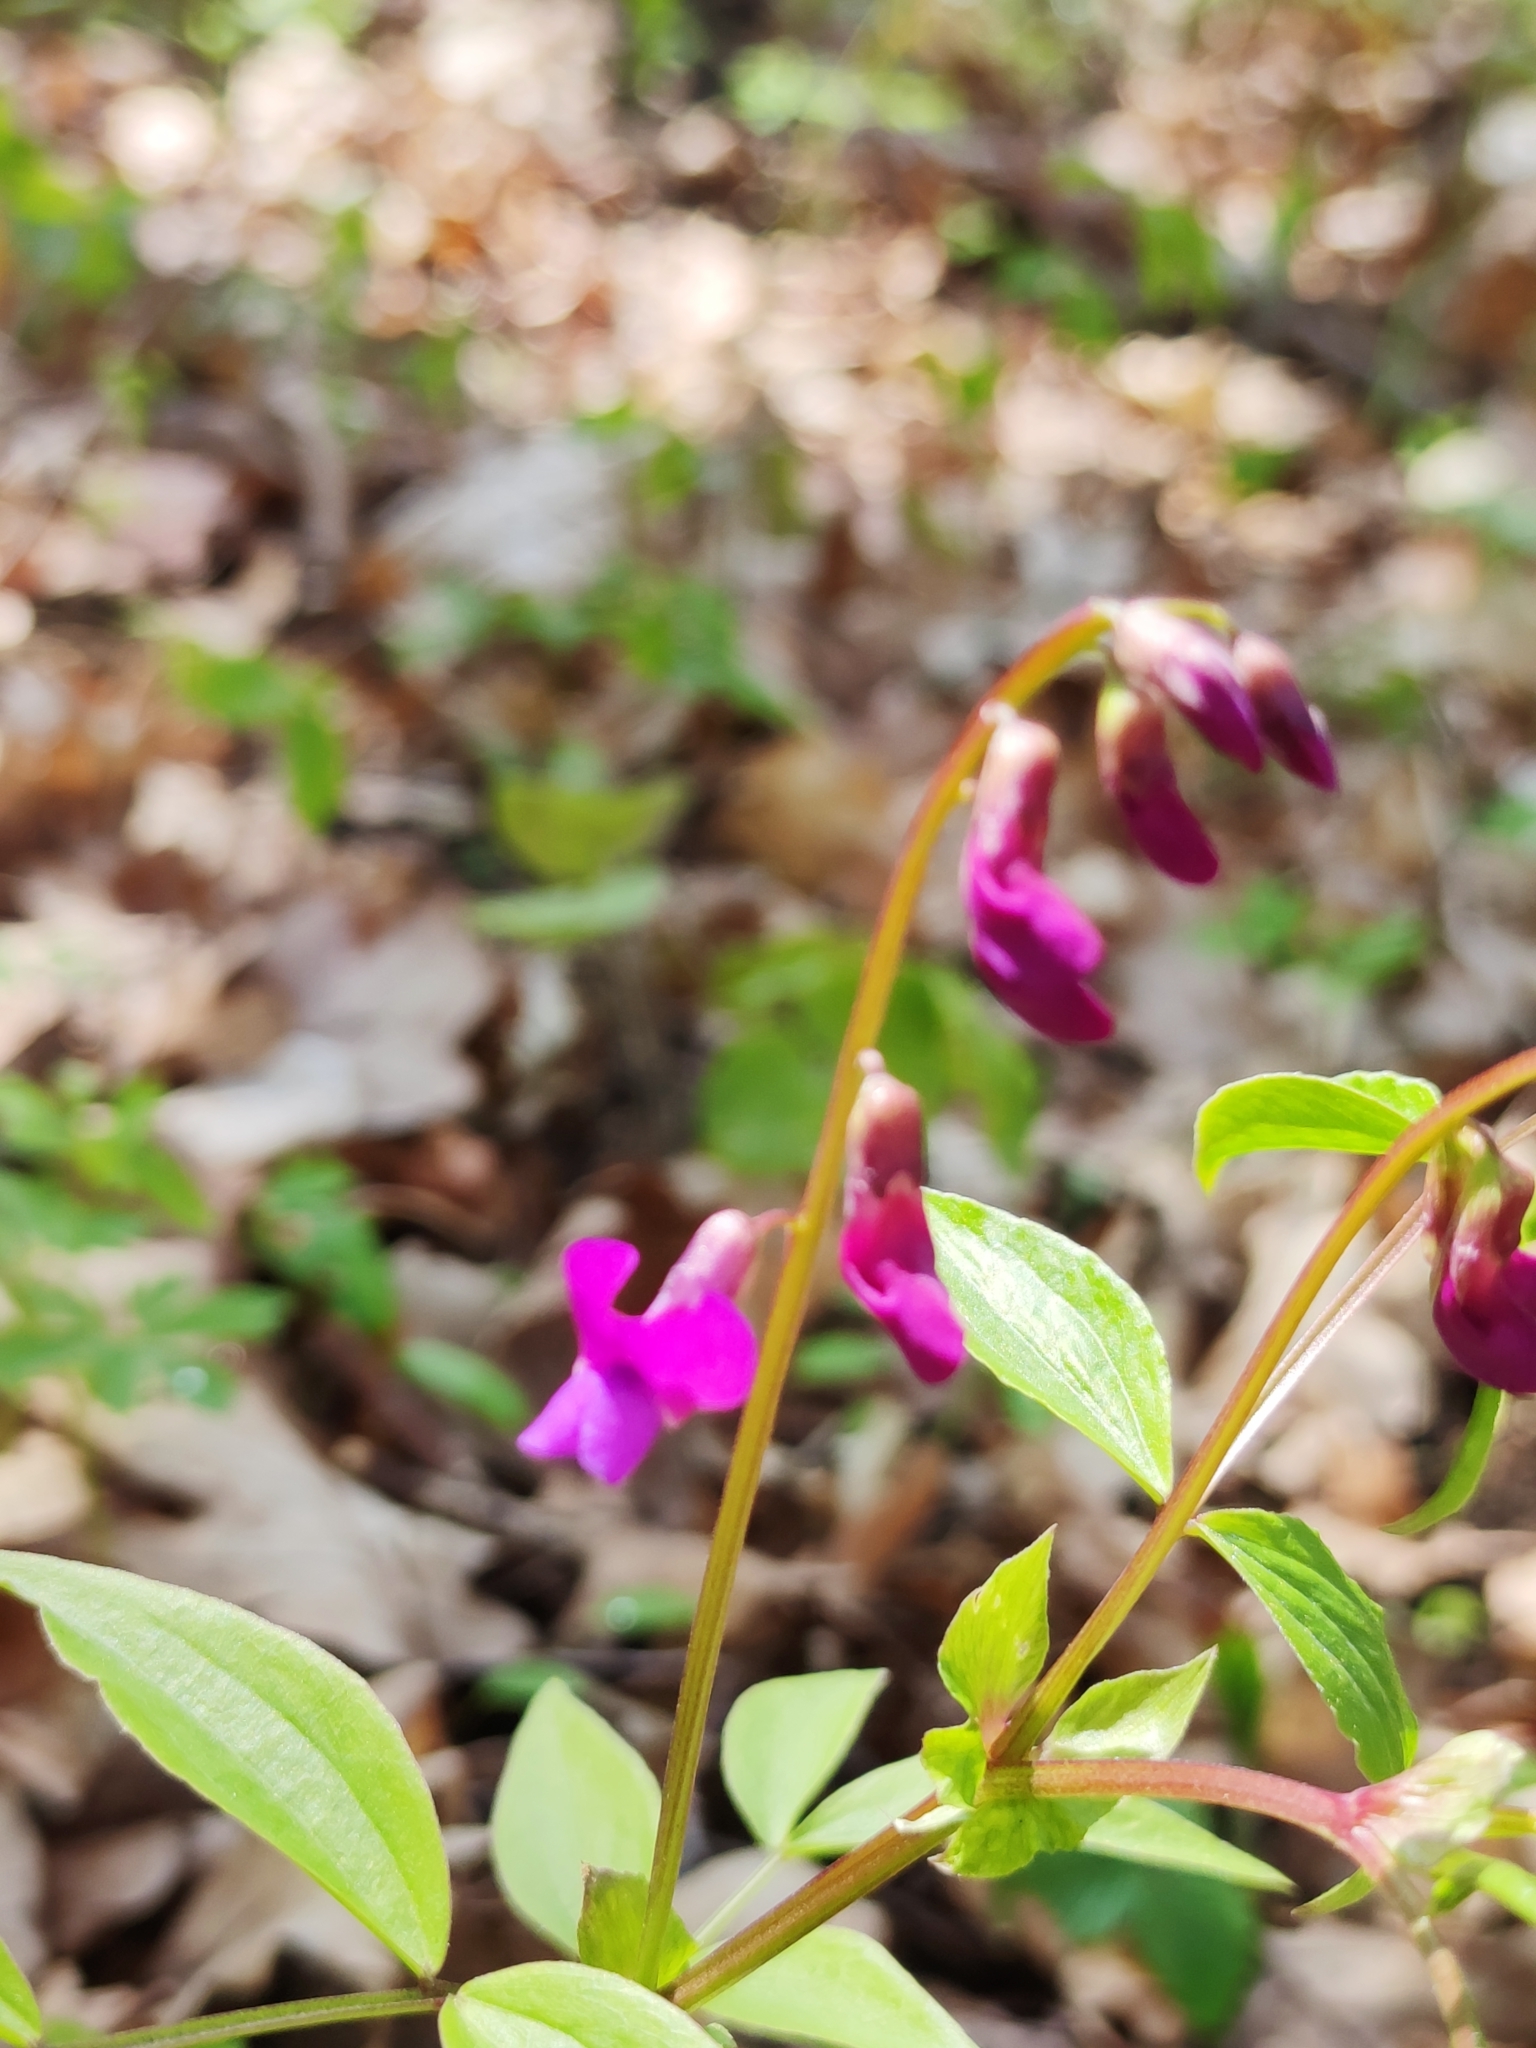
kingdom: Plantae
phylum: Tracheophyta
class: Magnoliopsida
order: Fabales
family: Fabaceae
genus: Lathyrus
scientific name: Lathyrus vernus
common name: Spring pea
